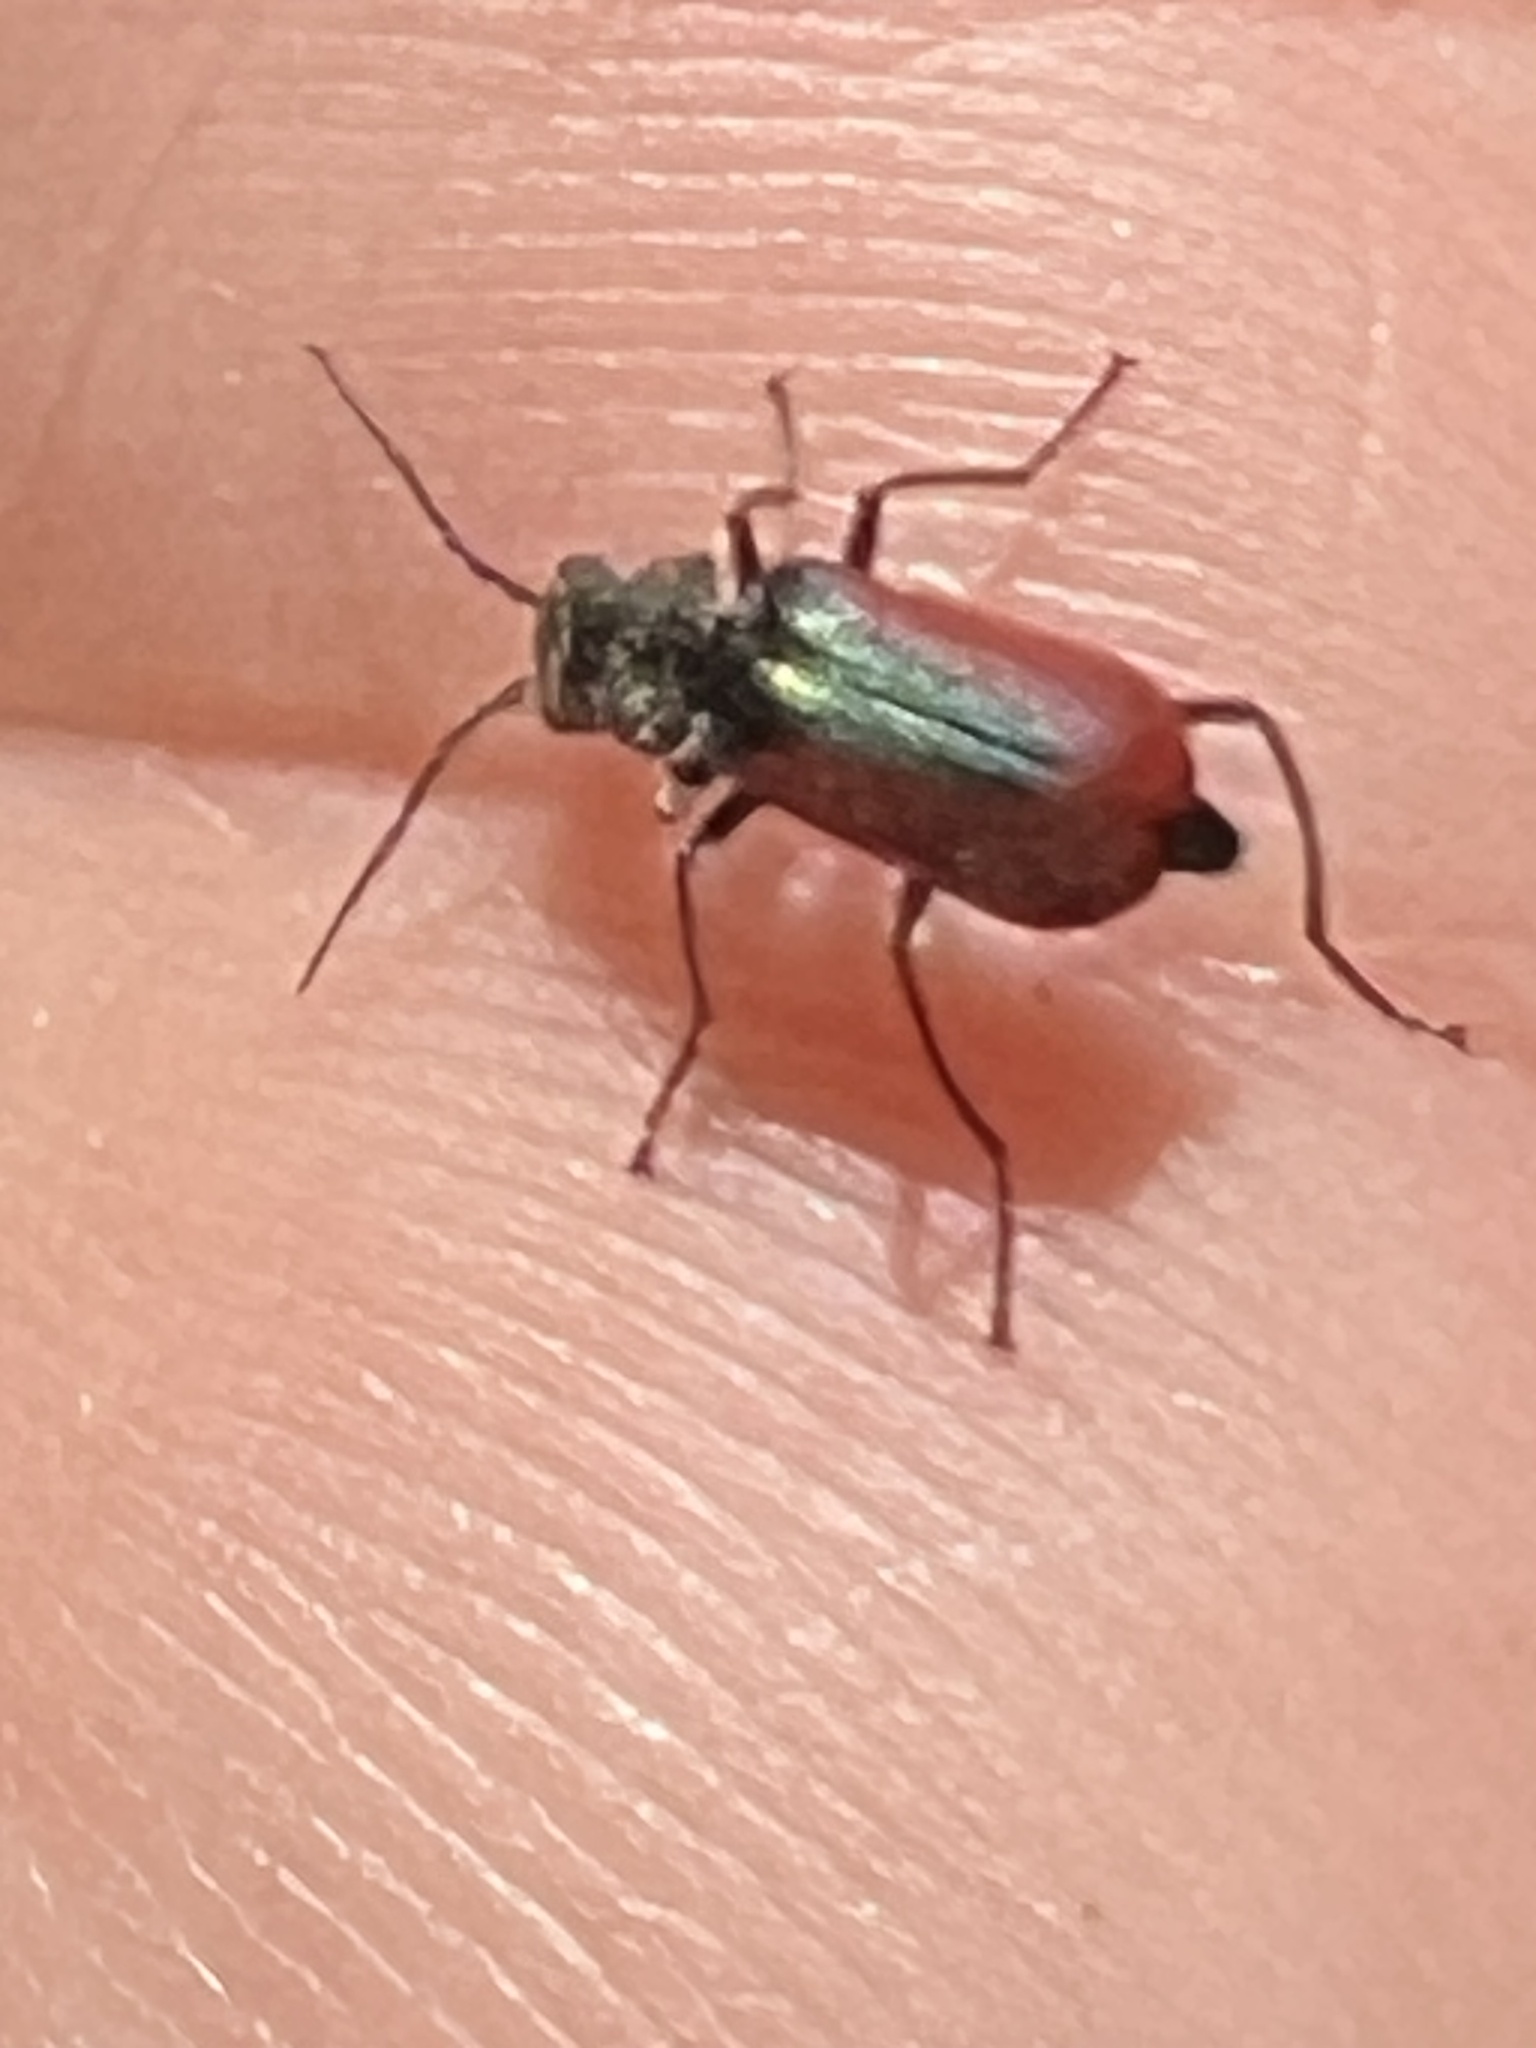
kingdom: Animalia
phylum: Arthropoda
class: Insecta
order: Coleoptera
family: Melyridae
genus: Malachius
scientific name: Malachius aeneus
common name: Scarlet malachite beetle
